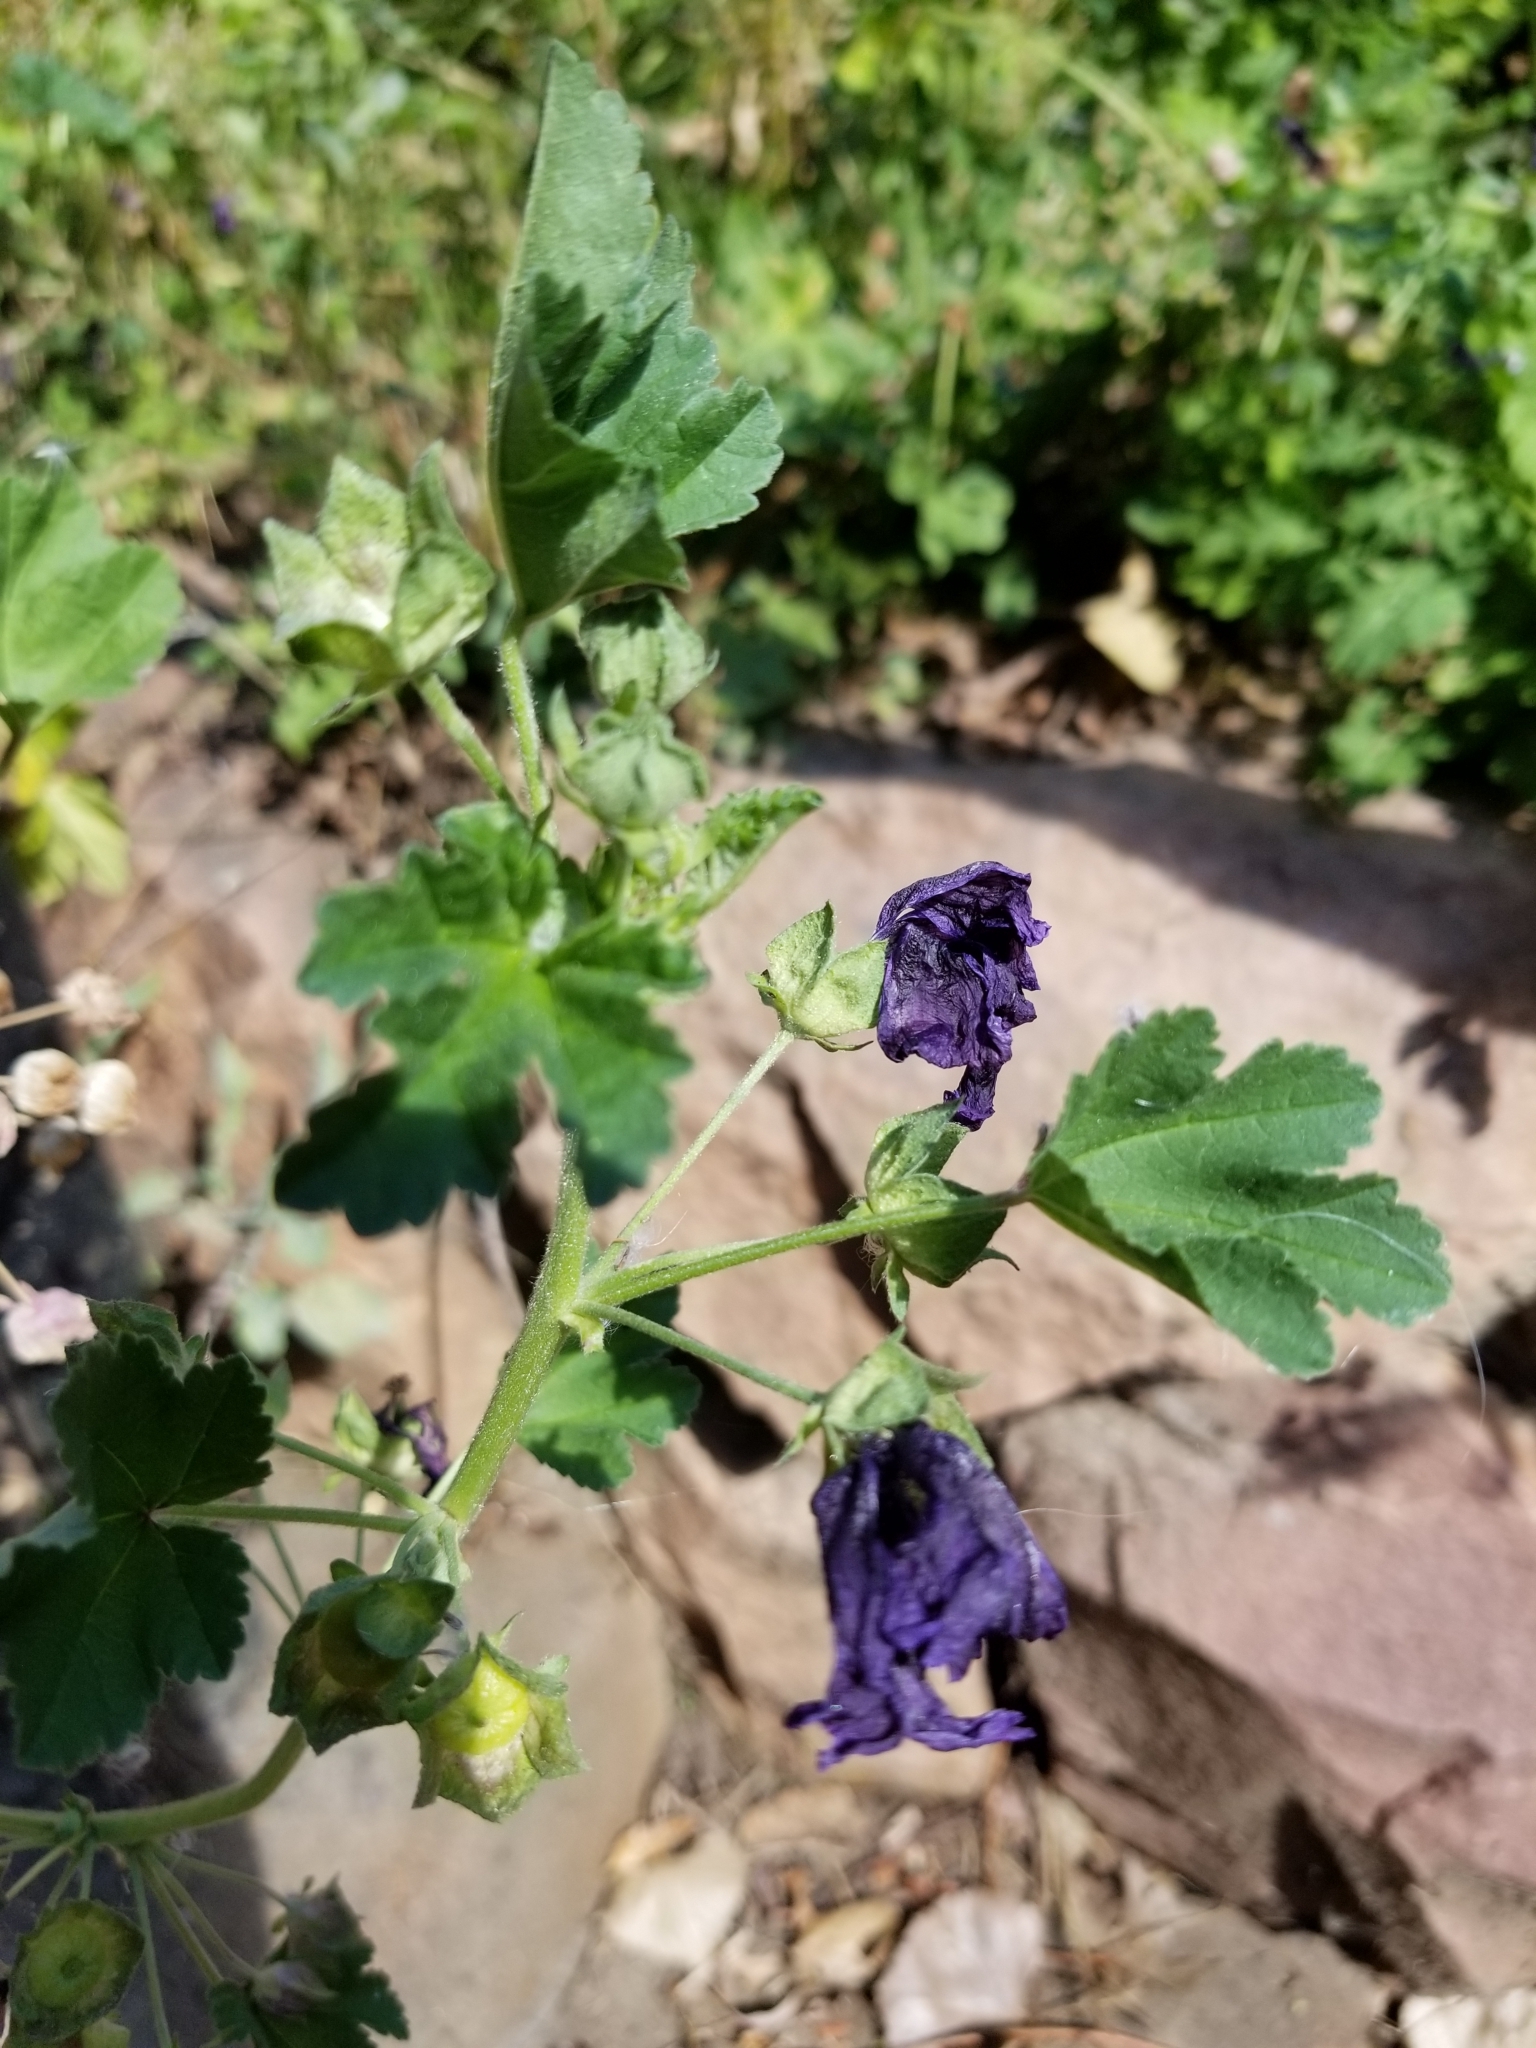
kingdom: Plantae
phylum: Tracheophyta
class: Magnoliopsida
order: Ranunculales
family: Ranunculaceae
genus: Aconitum
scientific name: Aconitum columbianum
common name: Columbia aconite
